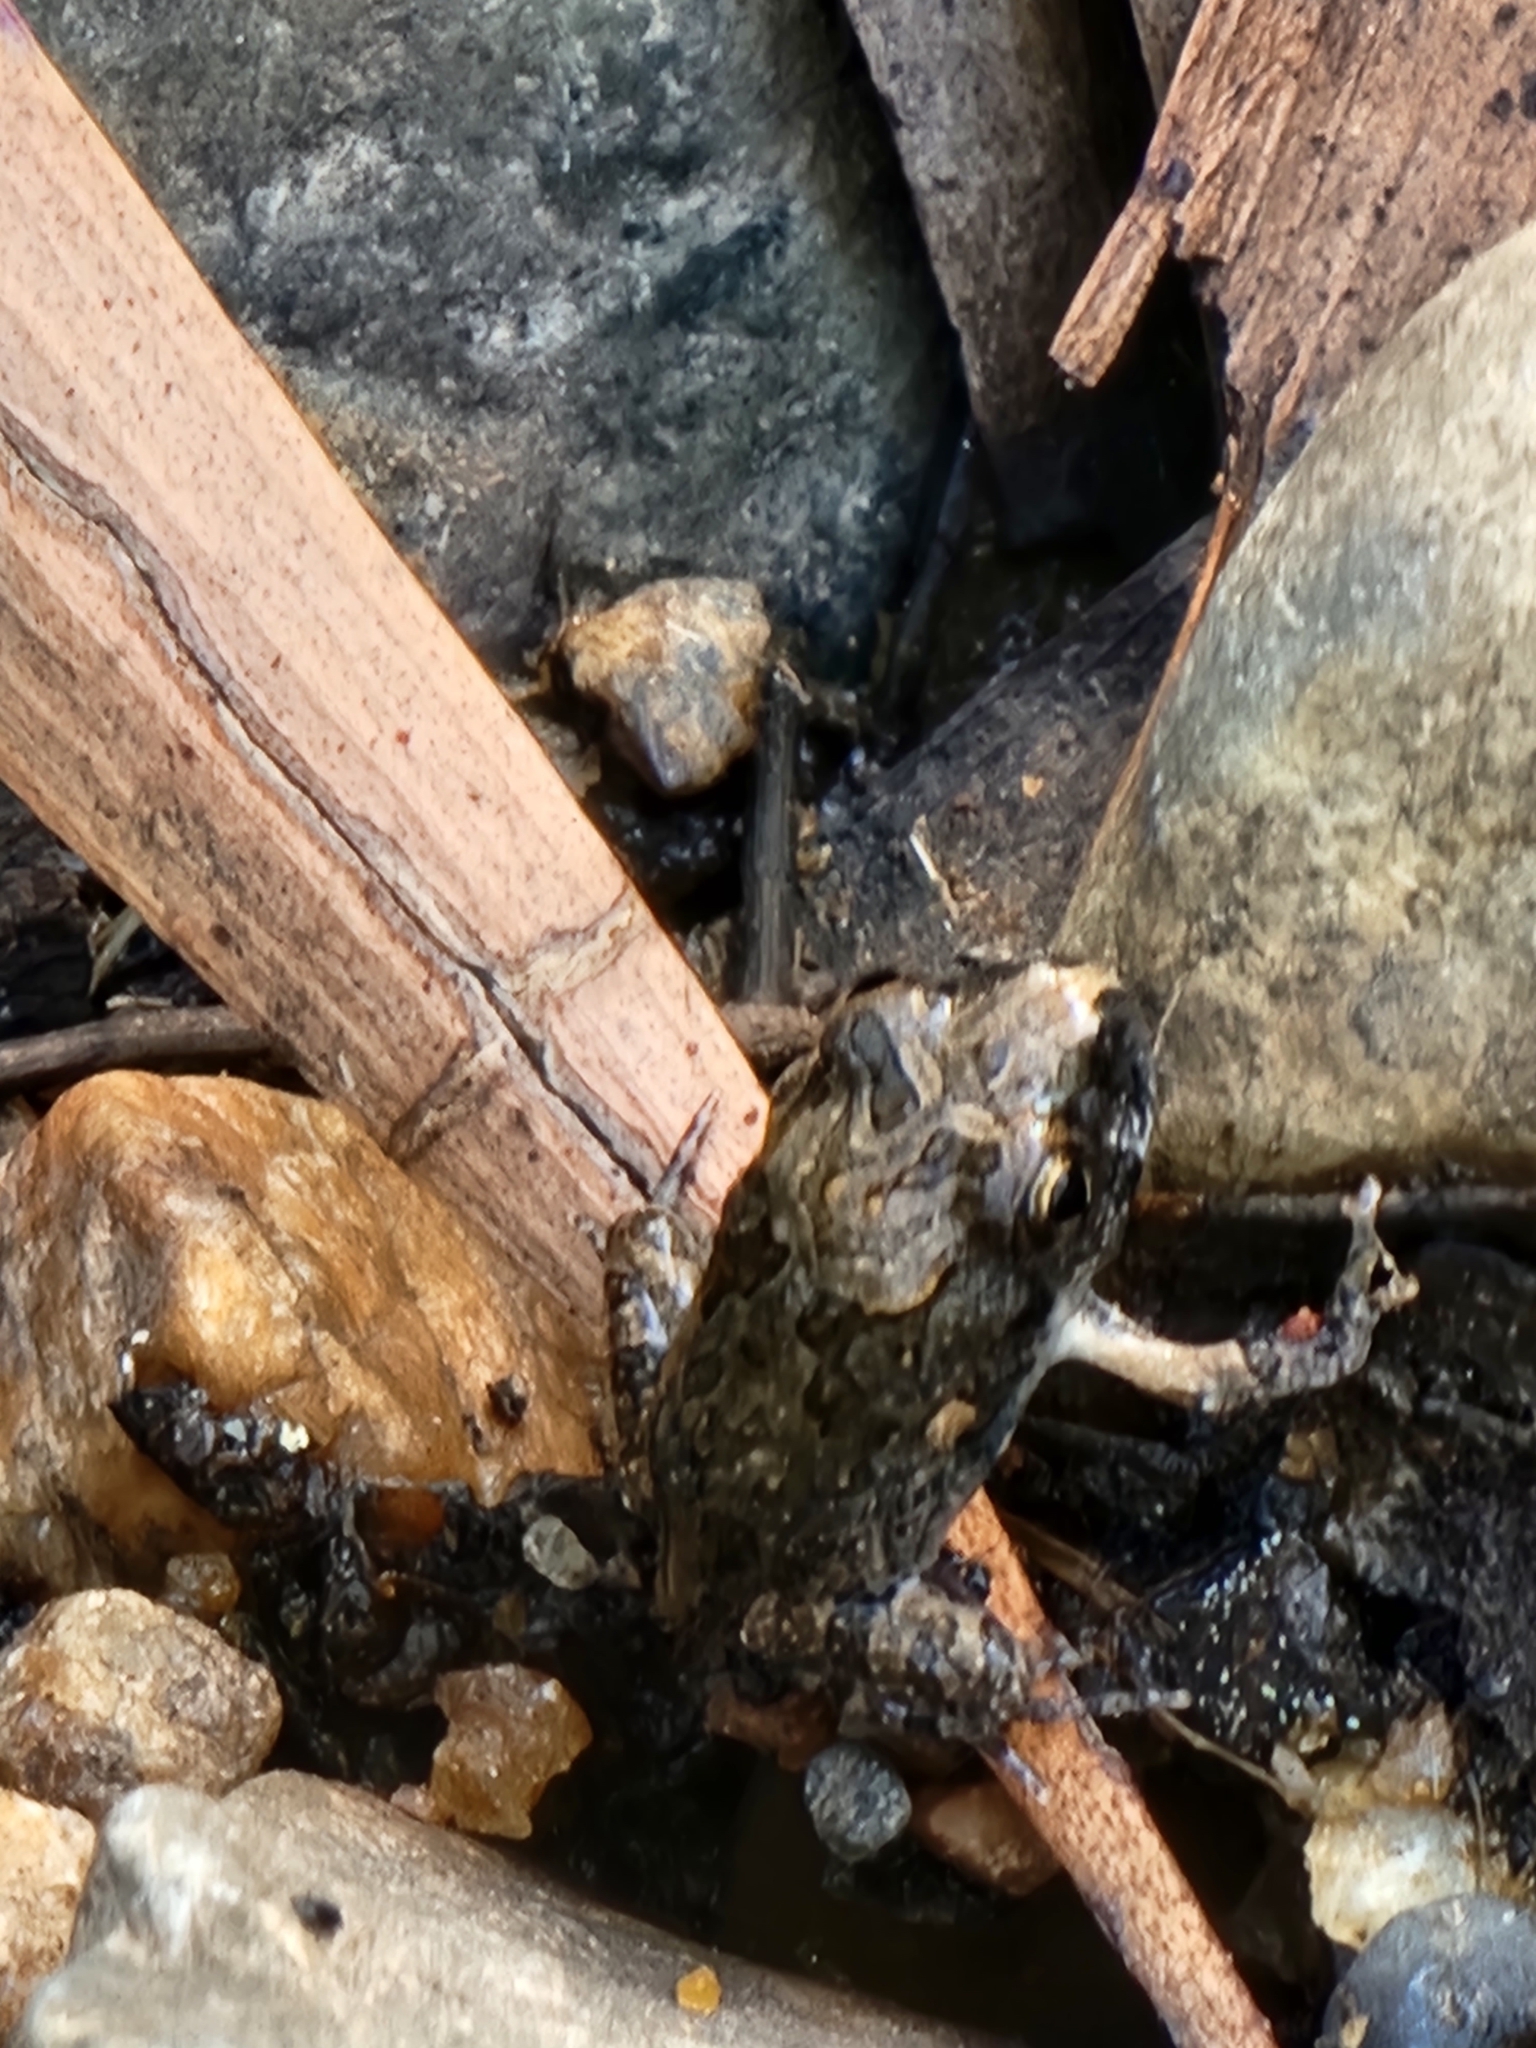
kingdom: Animalia
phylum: Chordata
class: Amphibia
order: Anura
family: Limnodynastidae
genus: Platyplectrum
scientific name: Platyplectrum ornatum
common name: Ornate burrowing frog
